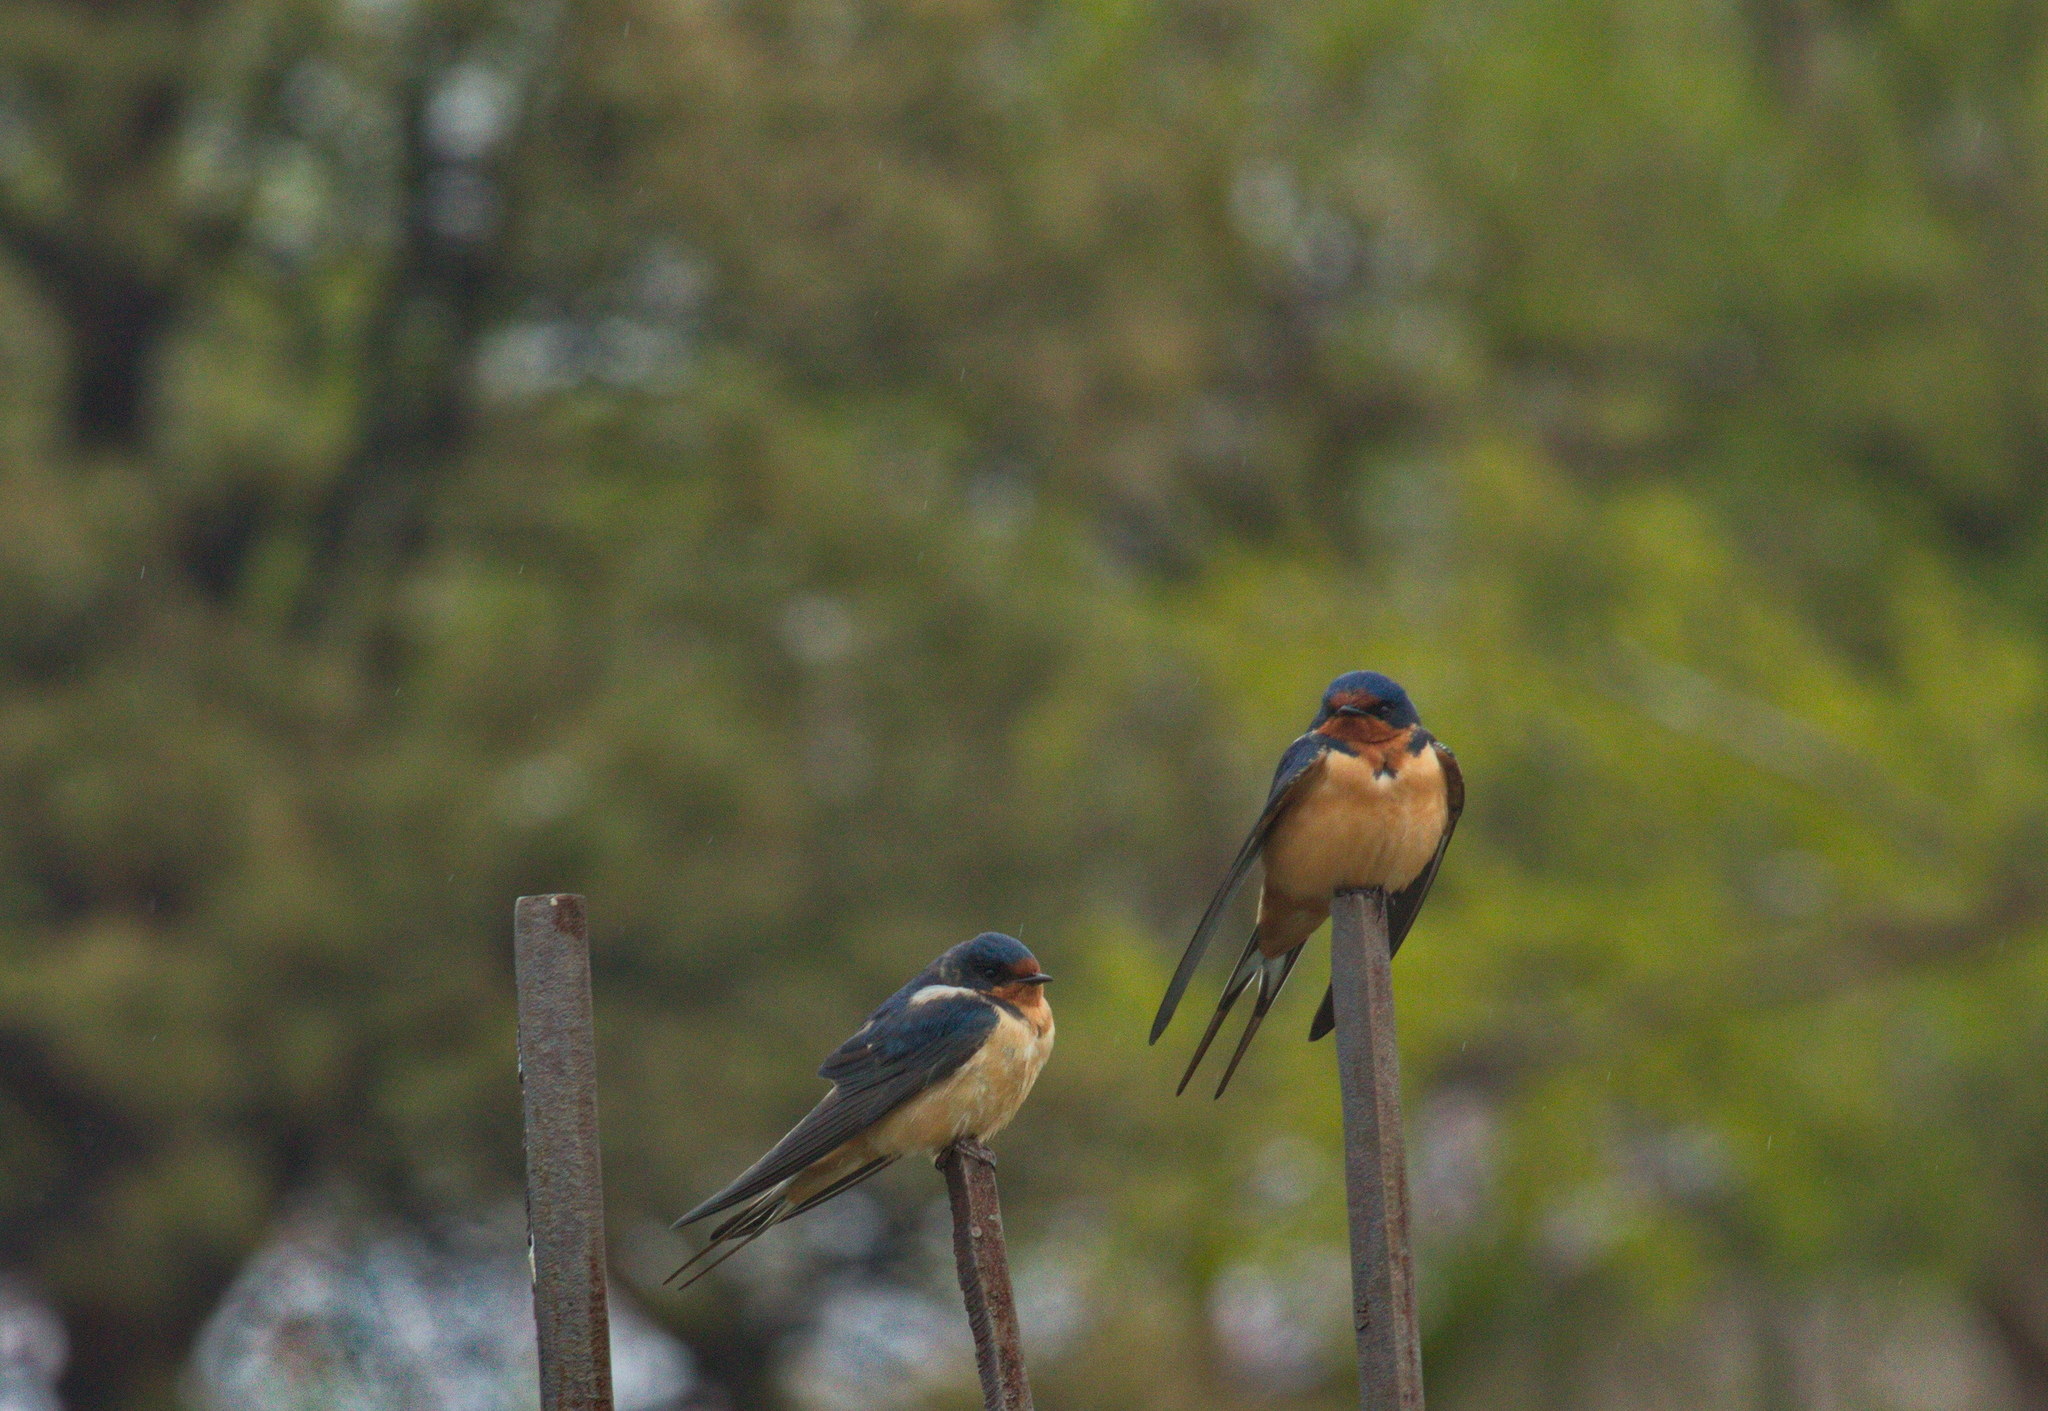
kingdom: Animalia
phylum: Chordata
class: Aves
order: Passeriformes
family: Hirundinidae
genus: Hirundo
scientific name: Hirundo rustica
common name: Barn swallow
